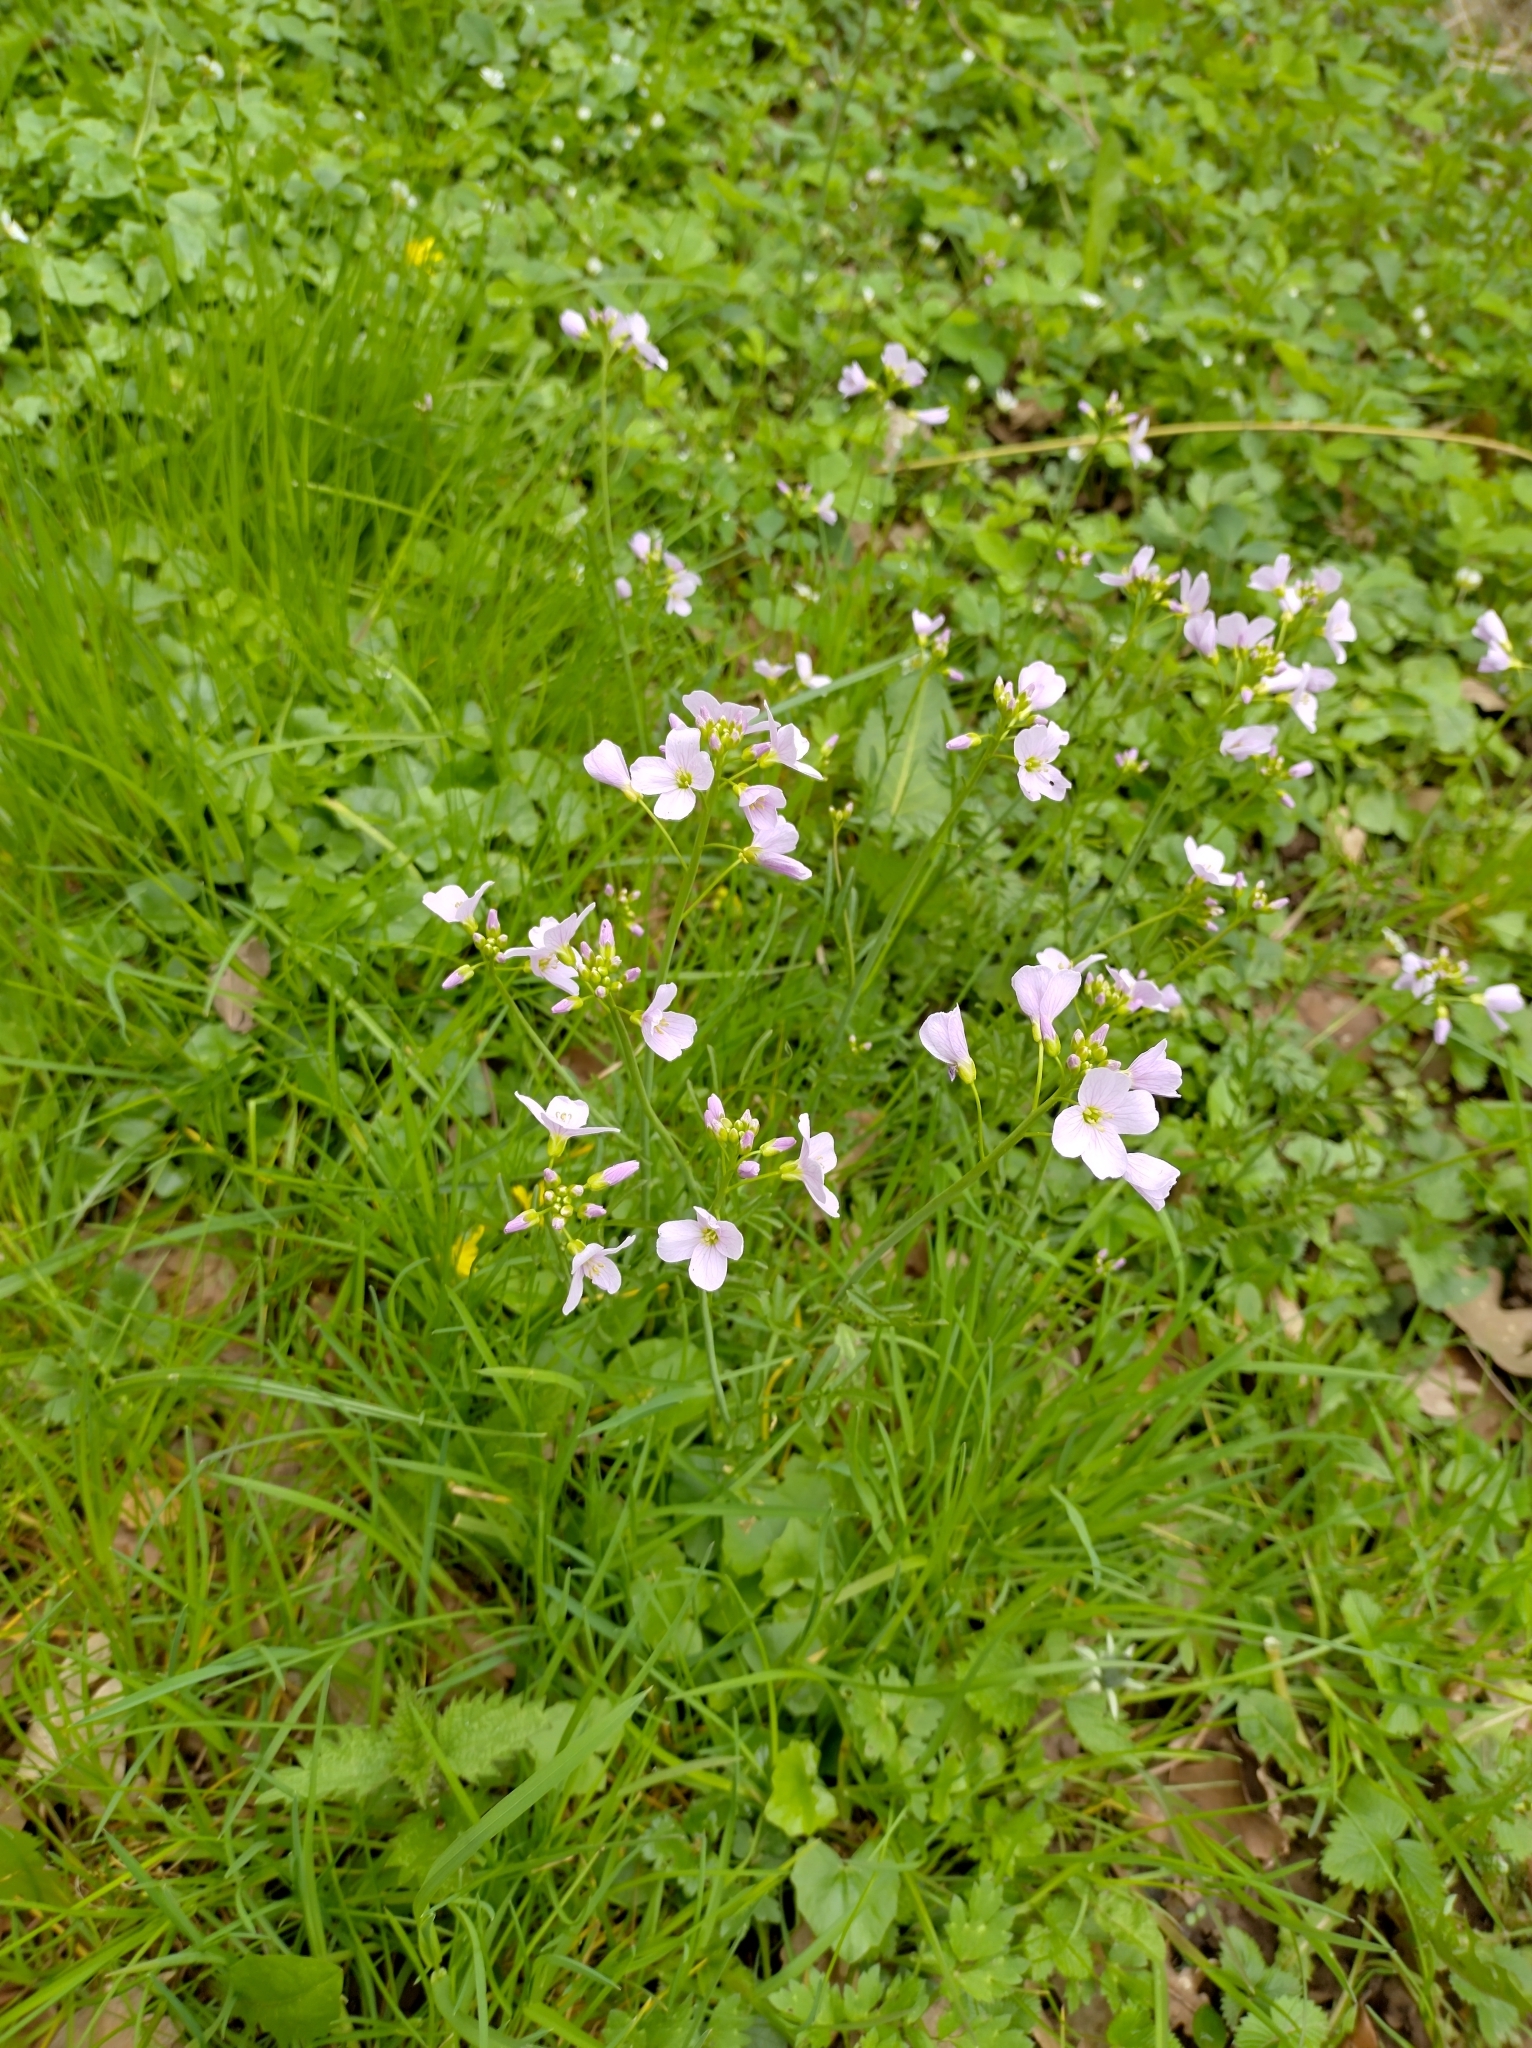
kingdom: Plantae
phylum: Tracheophyta
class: Magnoliopsida
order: Brassicales
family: Brassicaceae
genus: Cardamine
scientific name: Cardamine pratensis
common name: Cuckoo flower
